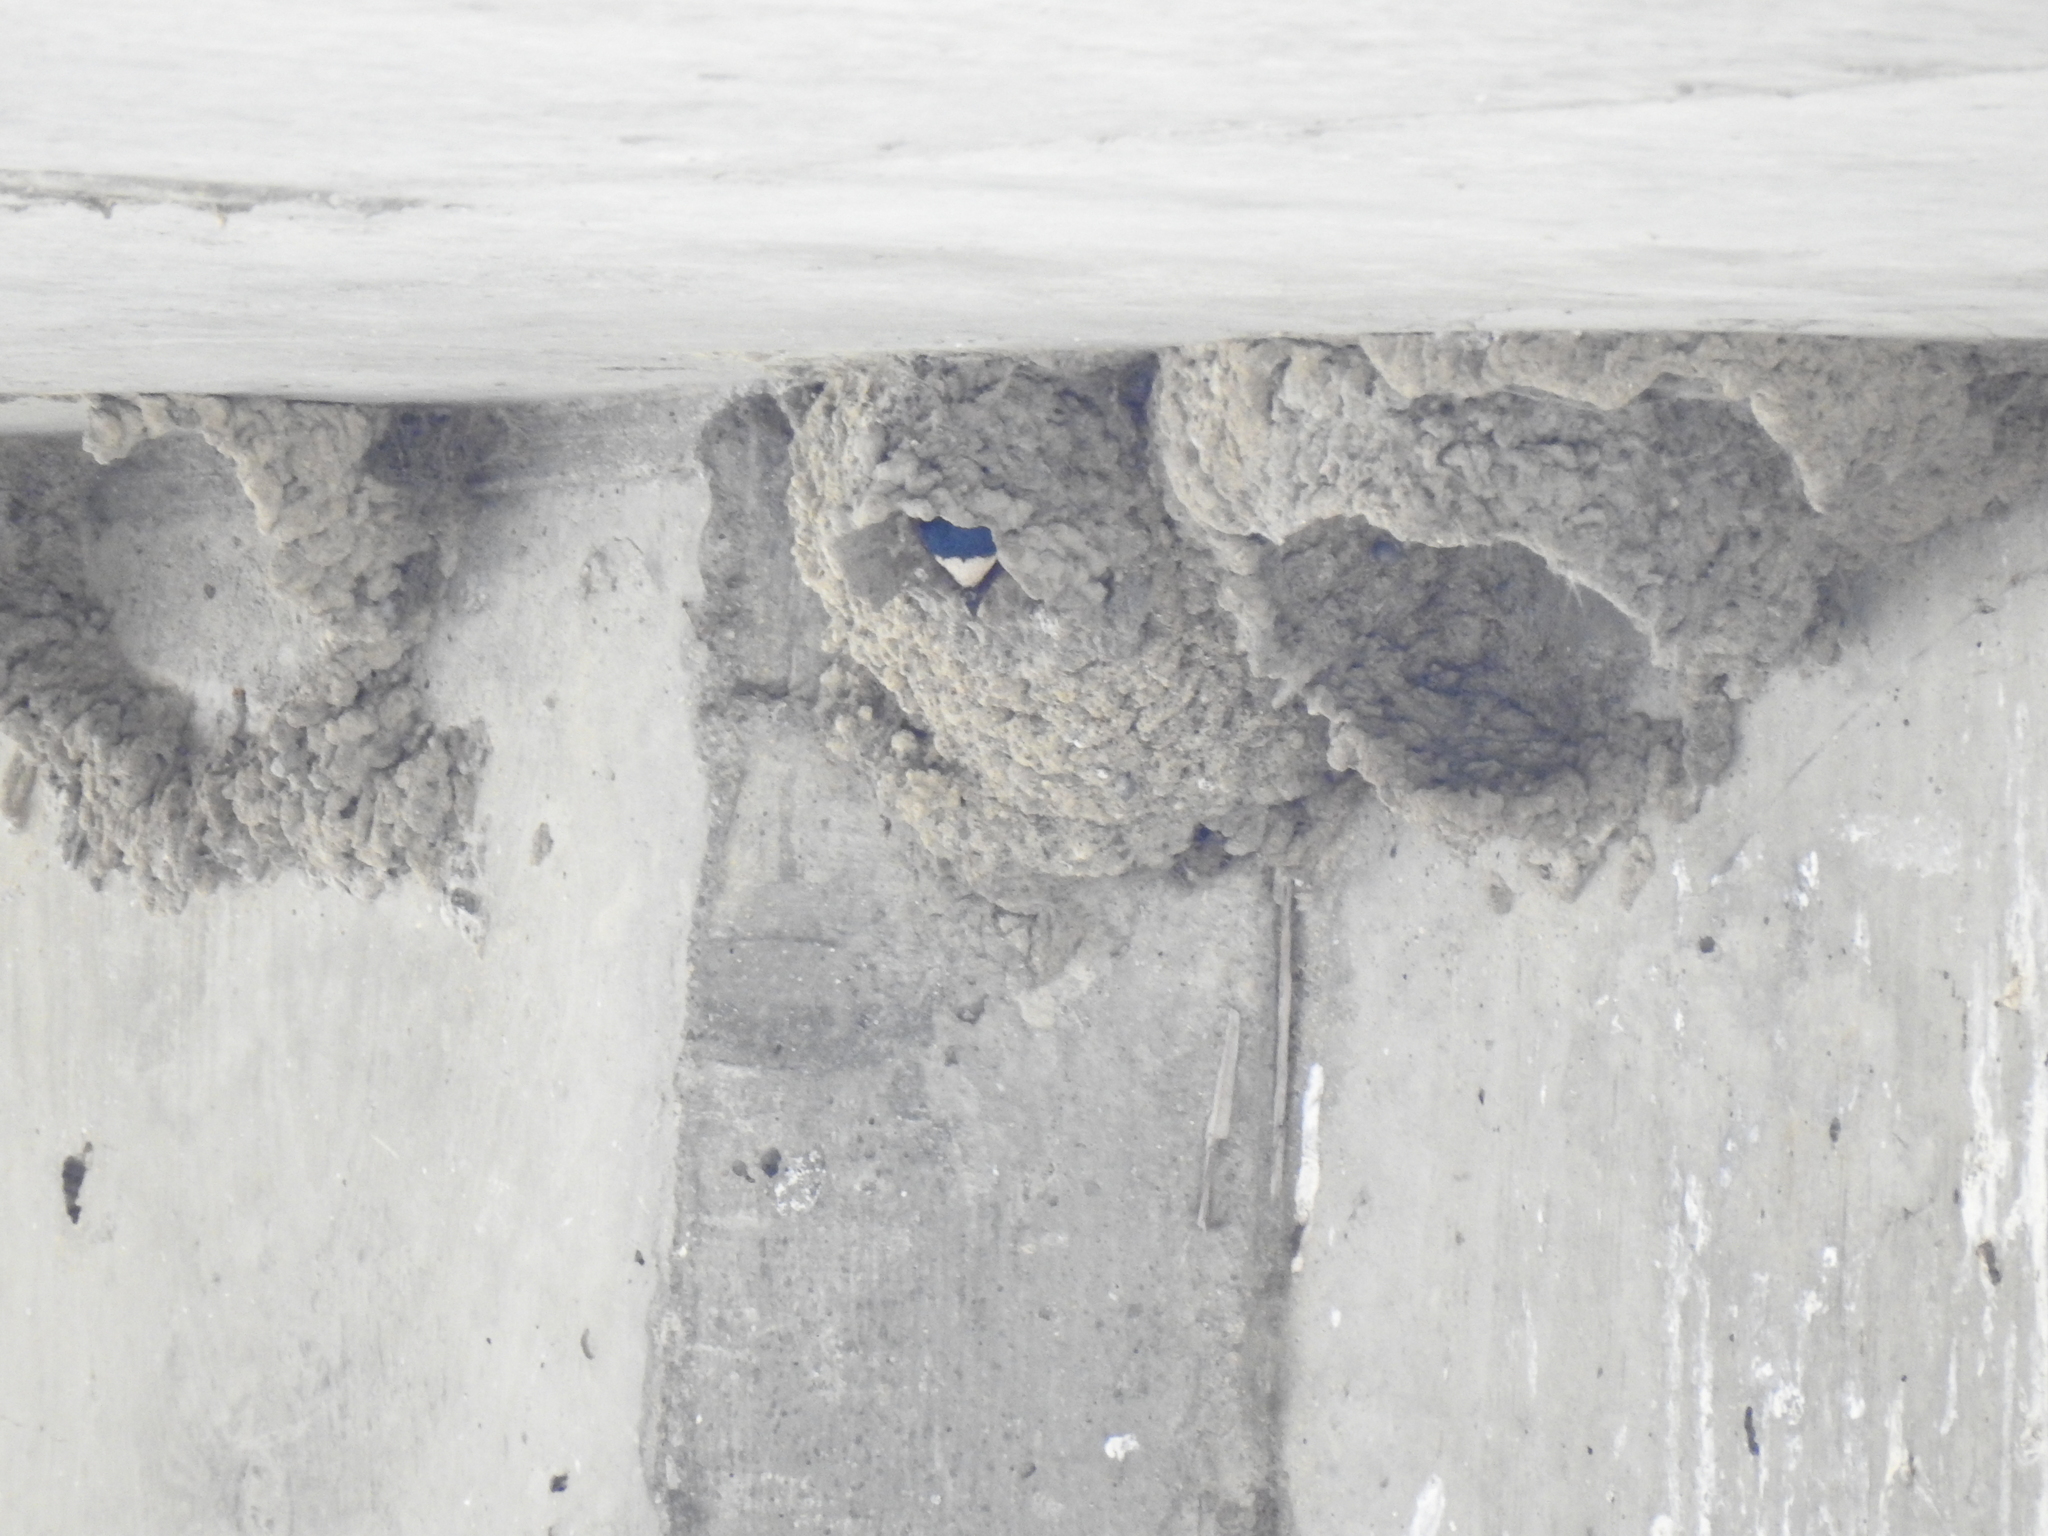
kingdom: Animalia
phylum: Chordata
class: Aves
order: Passeriformes
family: Hirundinidae
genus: Petrochelidon
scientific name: Petrochelidon pyrrhonota
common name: American cliff swallow
